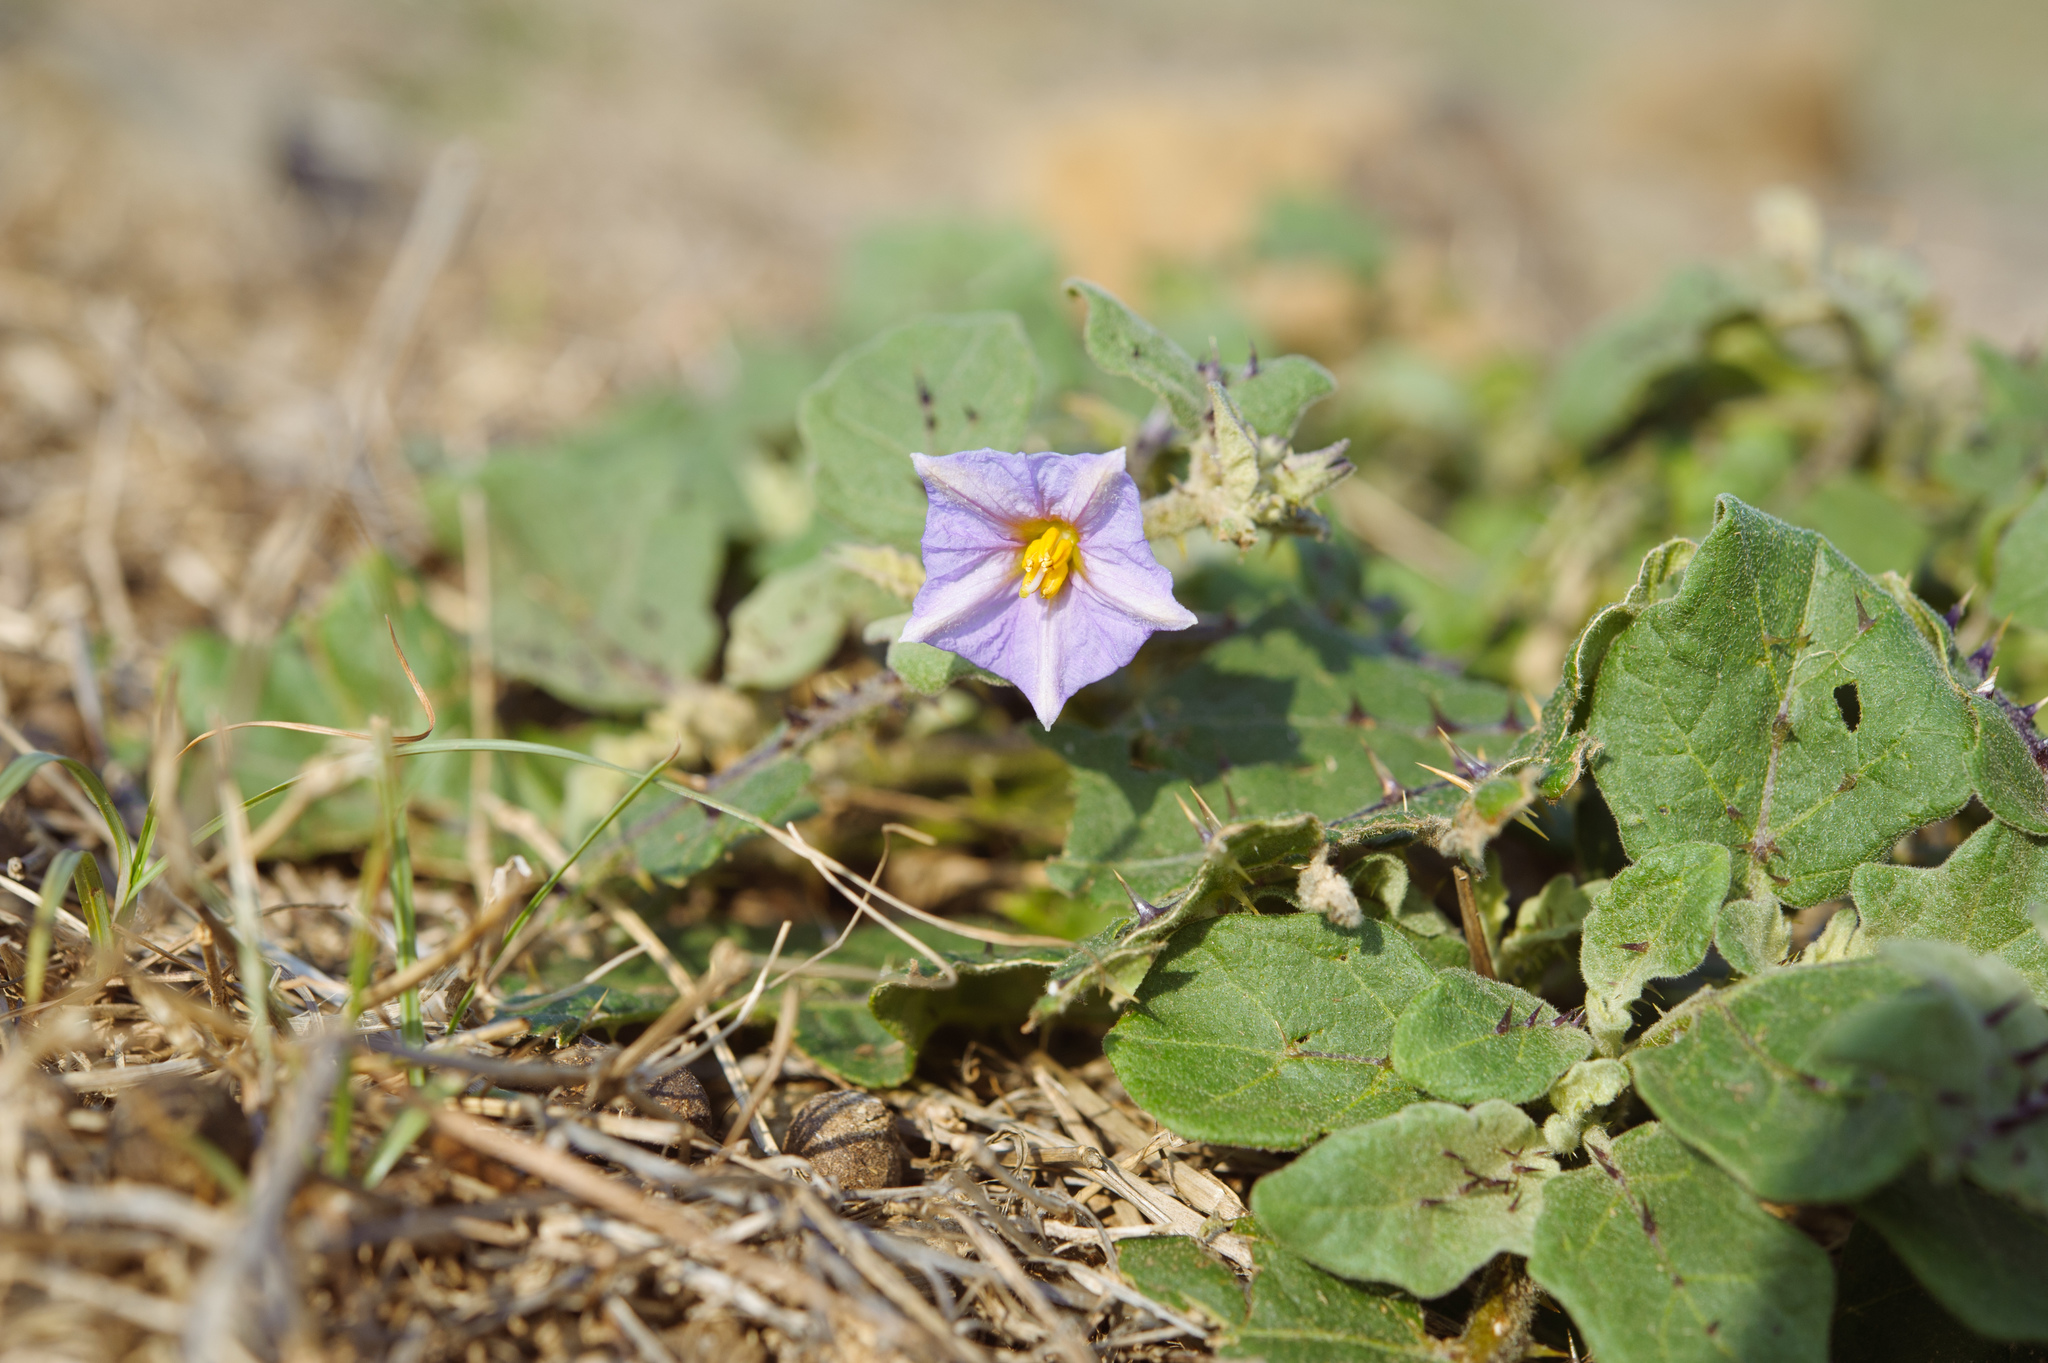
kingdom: Plantae
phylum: Tracheophyta
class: Magnoliopsida
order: Solanales
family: Solanaceae
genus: Solanum
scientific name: Solanum insanum
